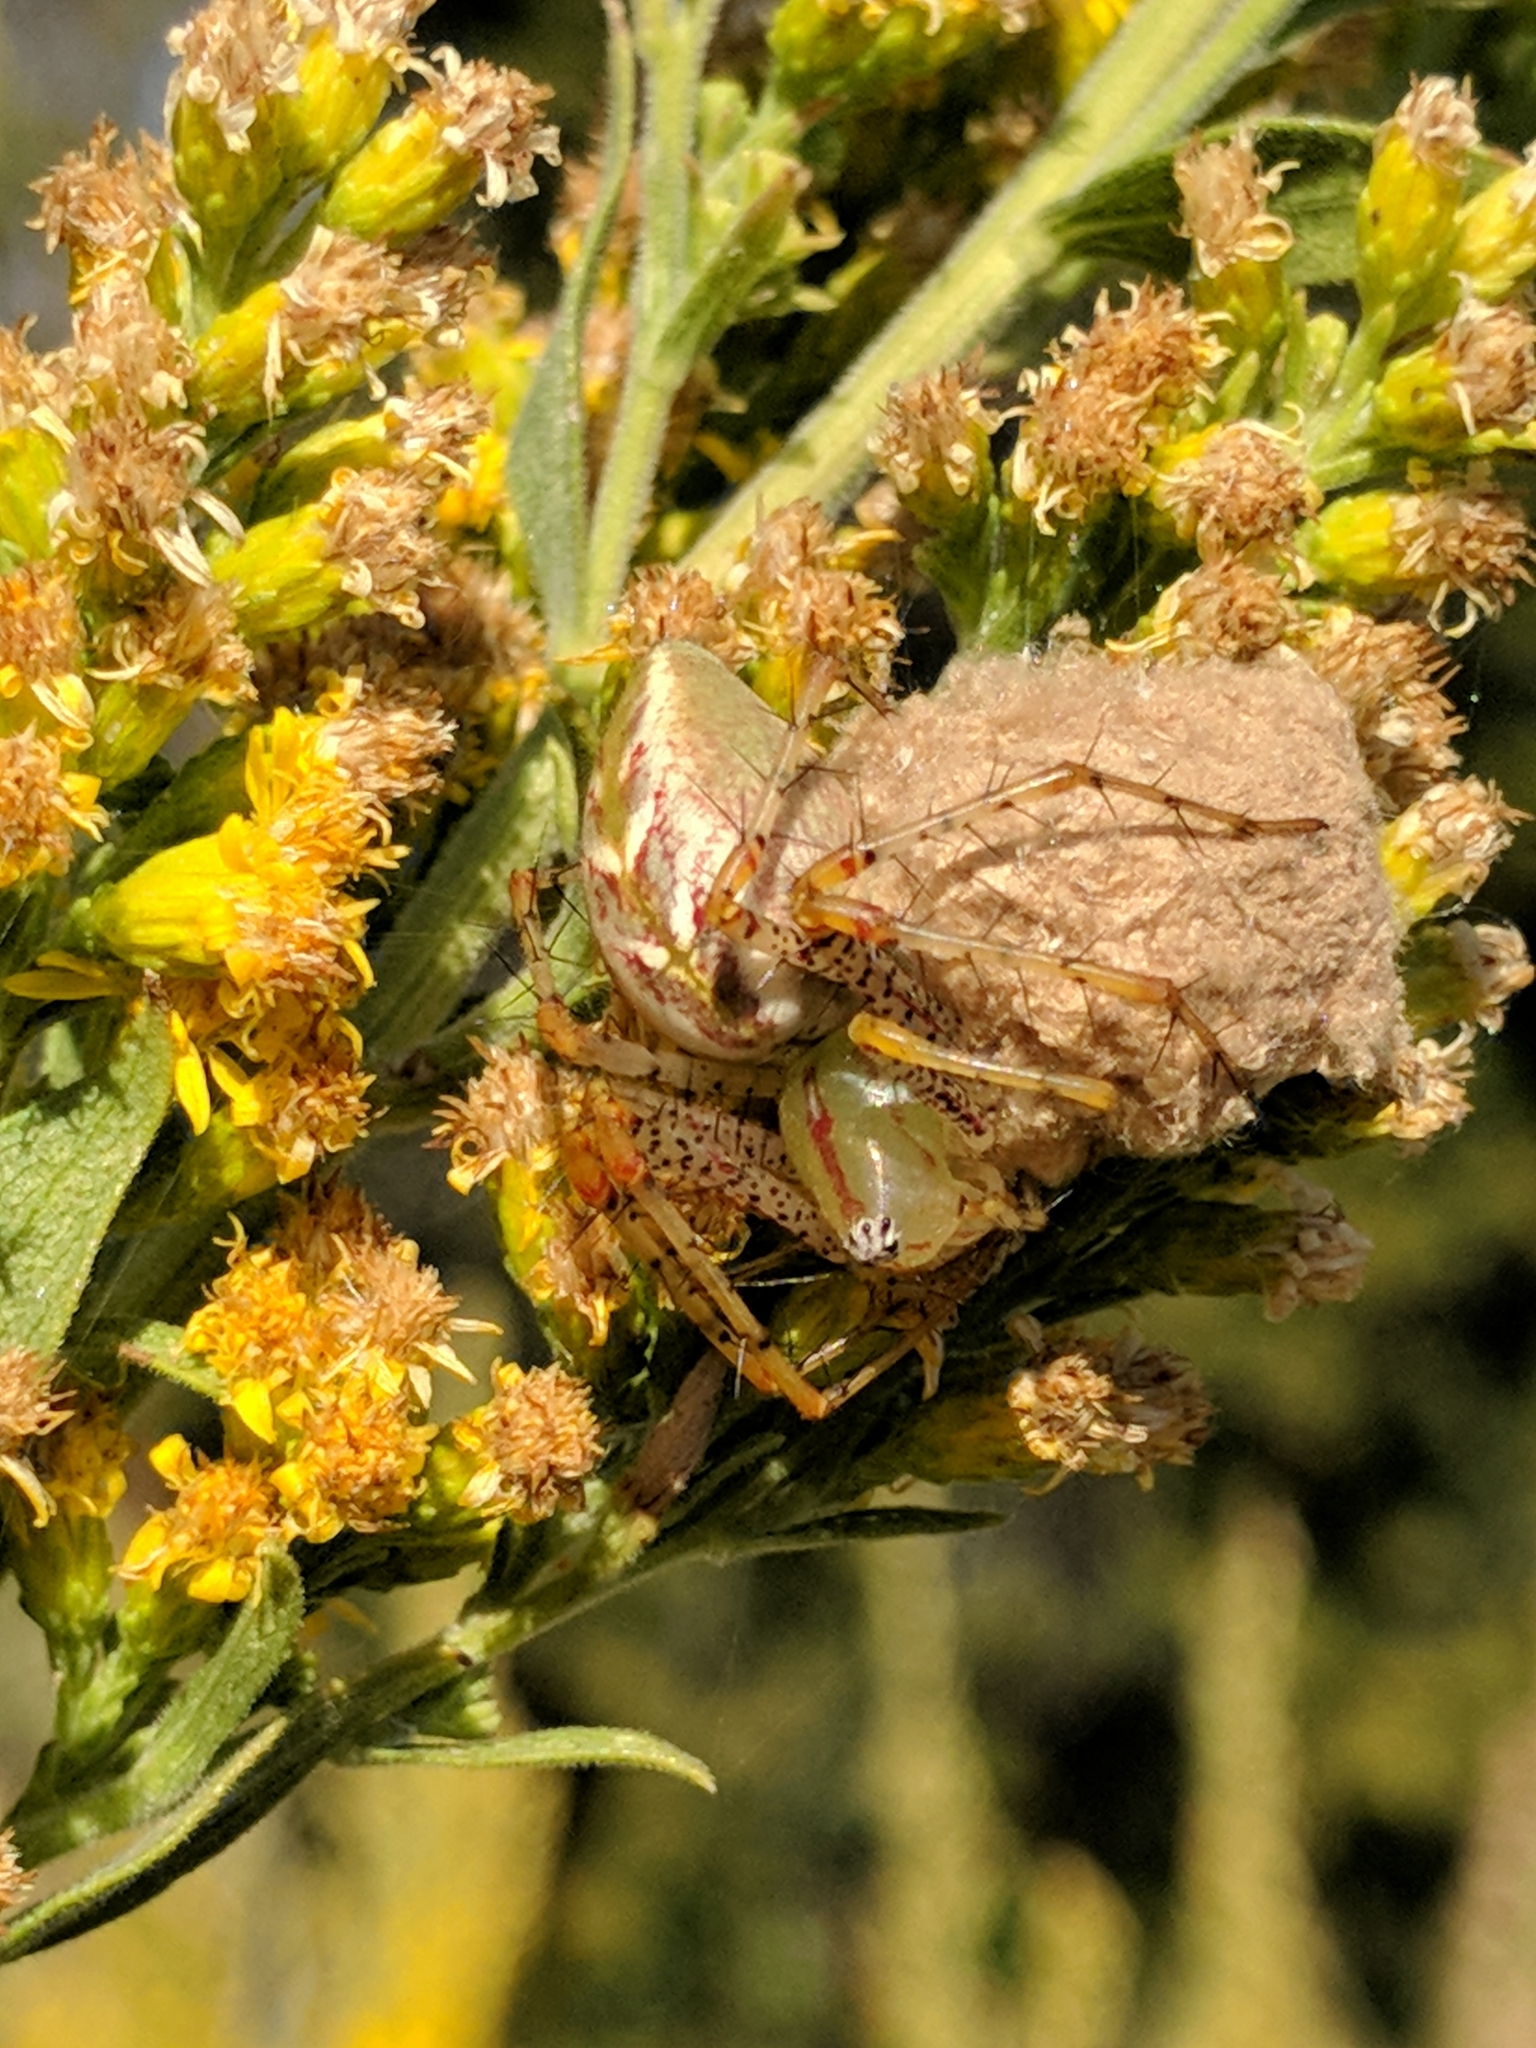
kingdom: Animalia
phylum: Arthropoda
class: Arachnida
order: Araneae
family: Oxyopidae
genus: Peucetia
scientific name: Peucetia viridans
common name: Lynx spiders
